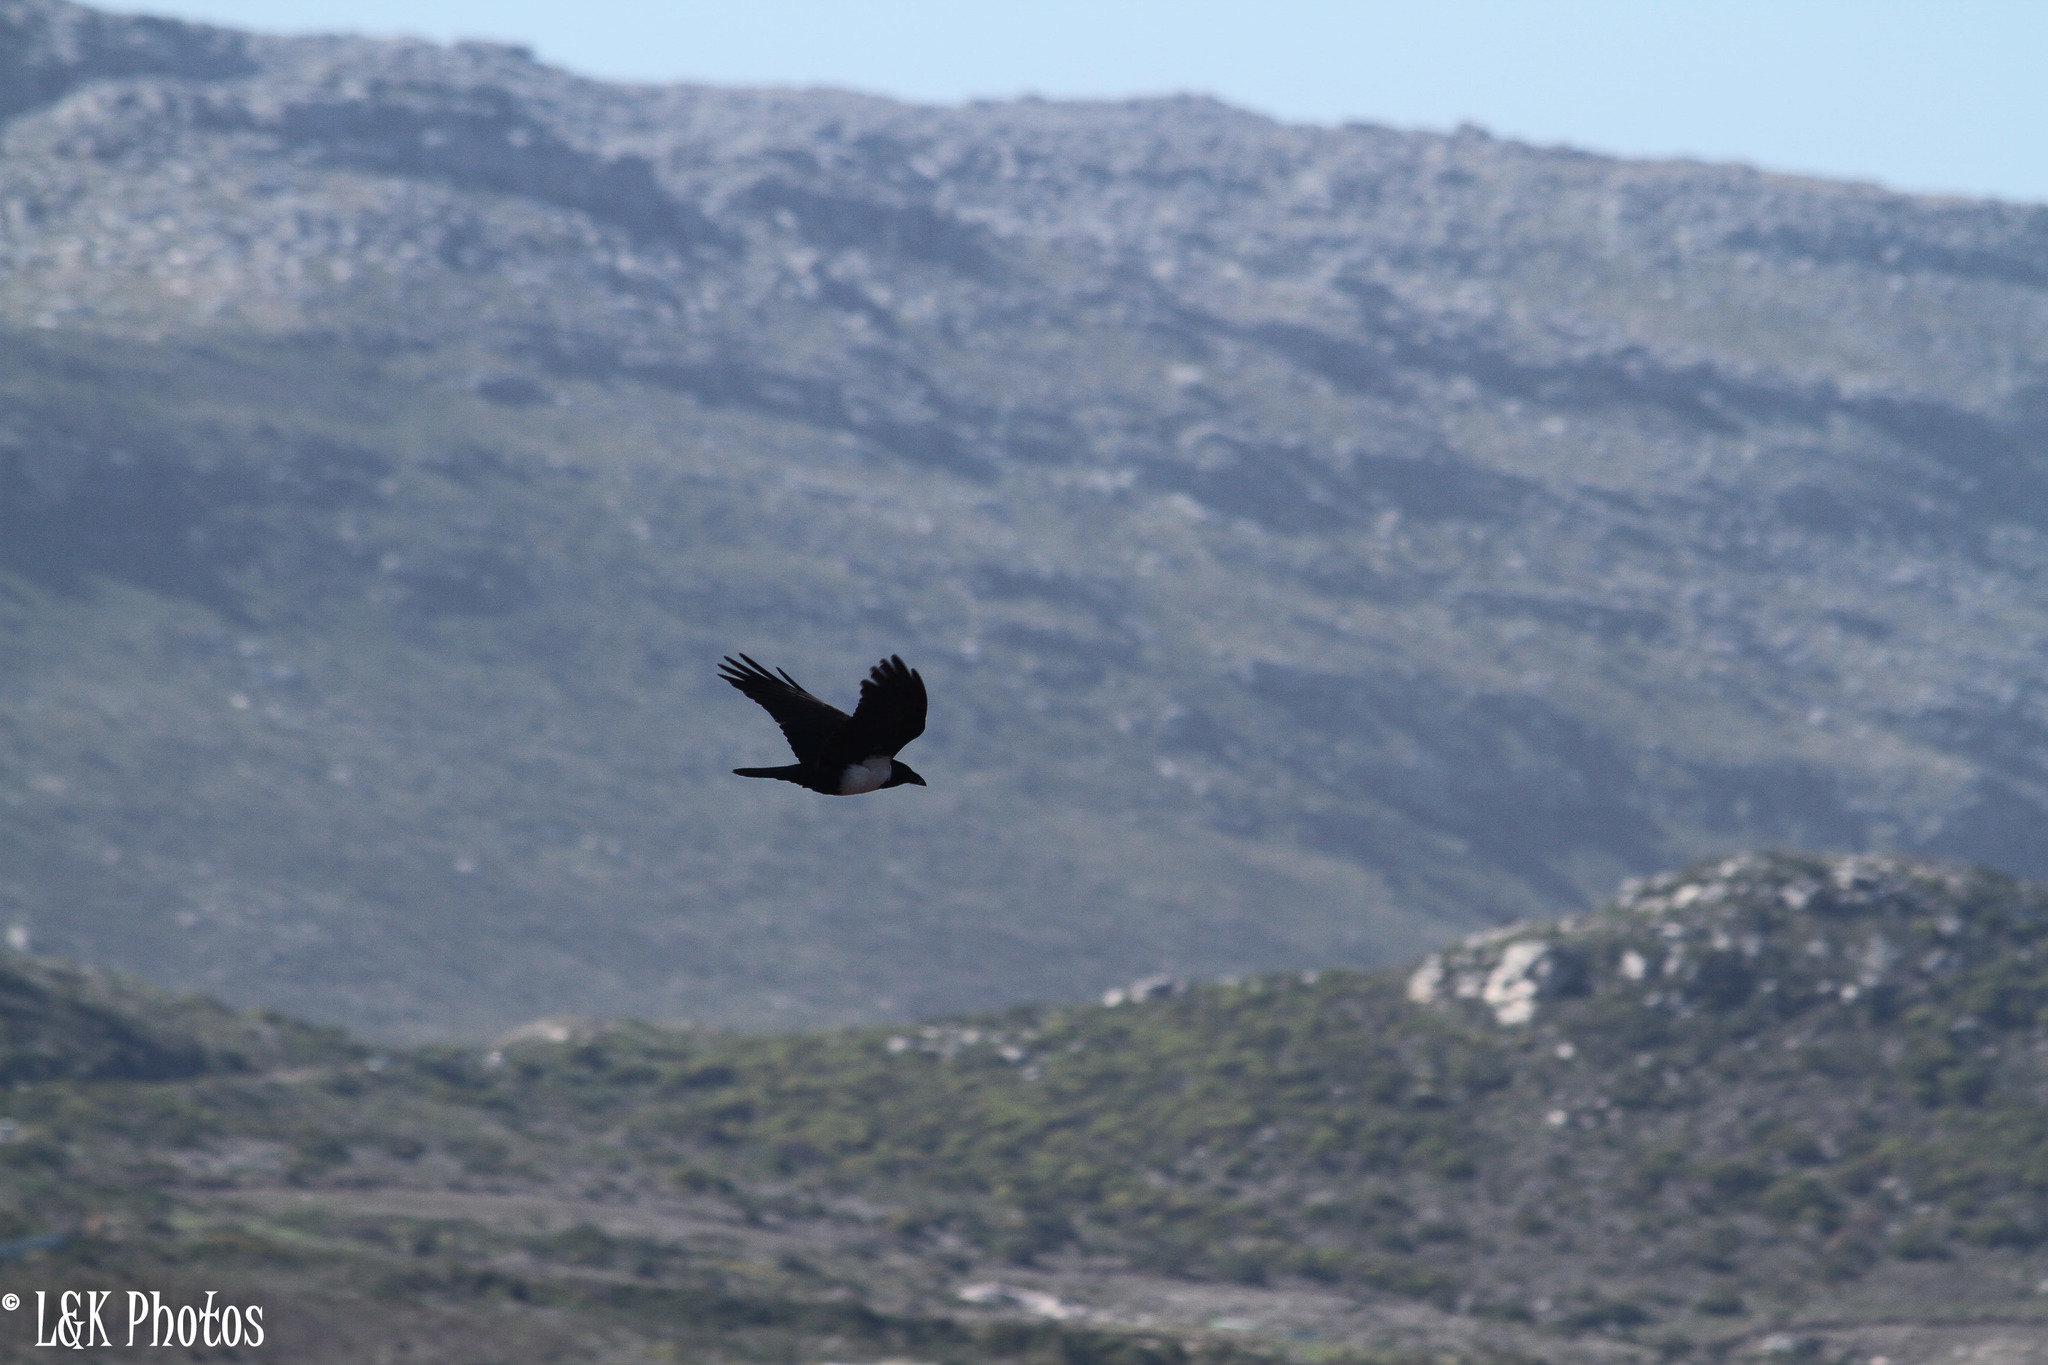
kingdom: Animalia
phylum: Chordata
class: Aves
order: Passeriformes
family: Corvidae
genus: Corvus
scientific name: Corvus albus
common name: Pied crow
